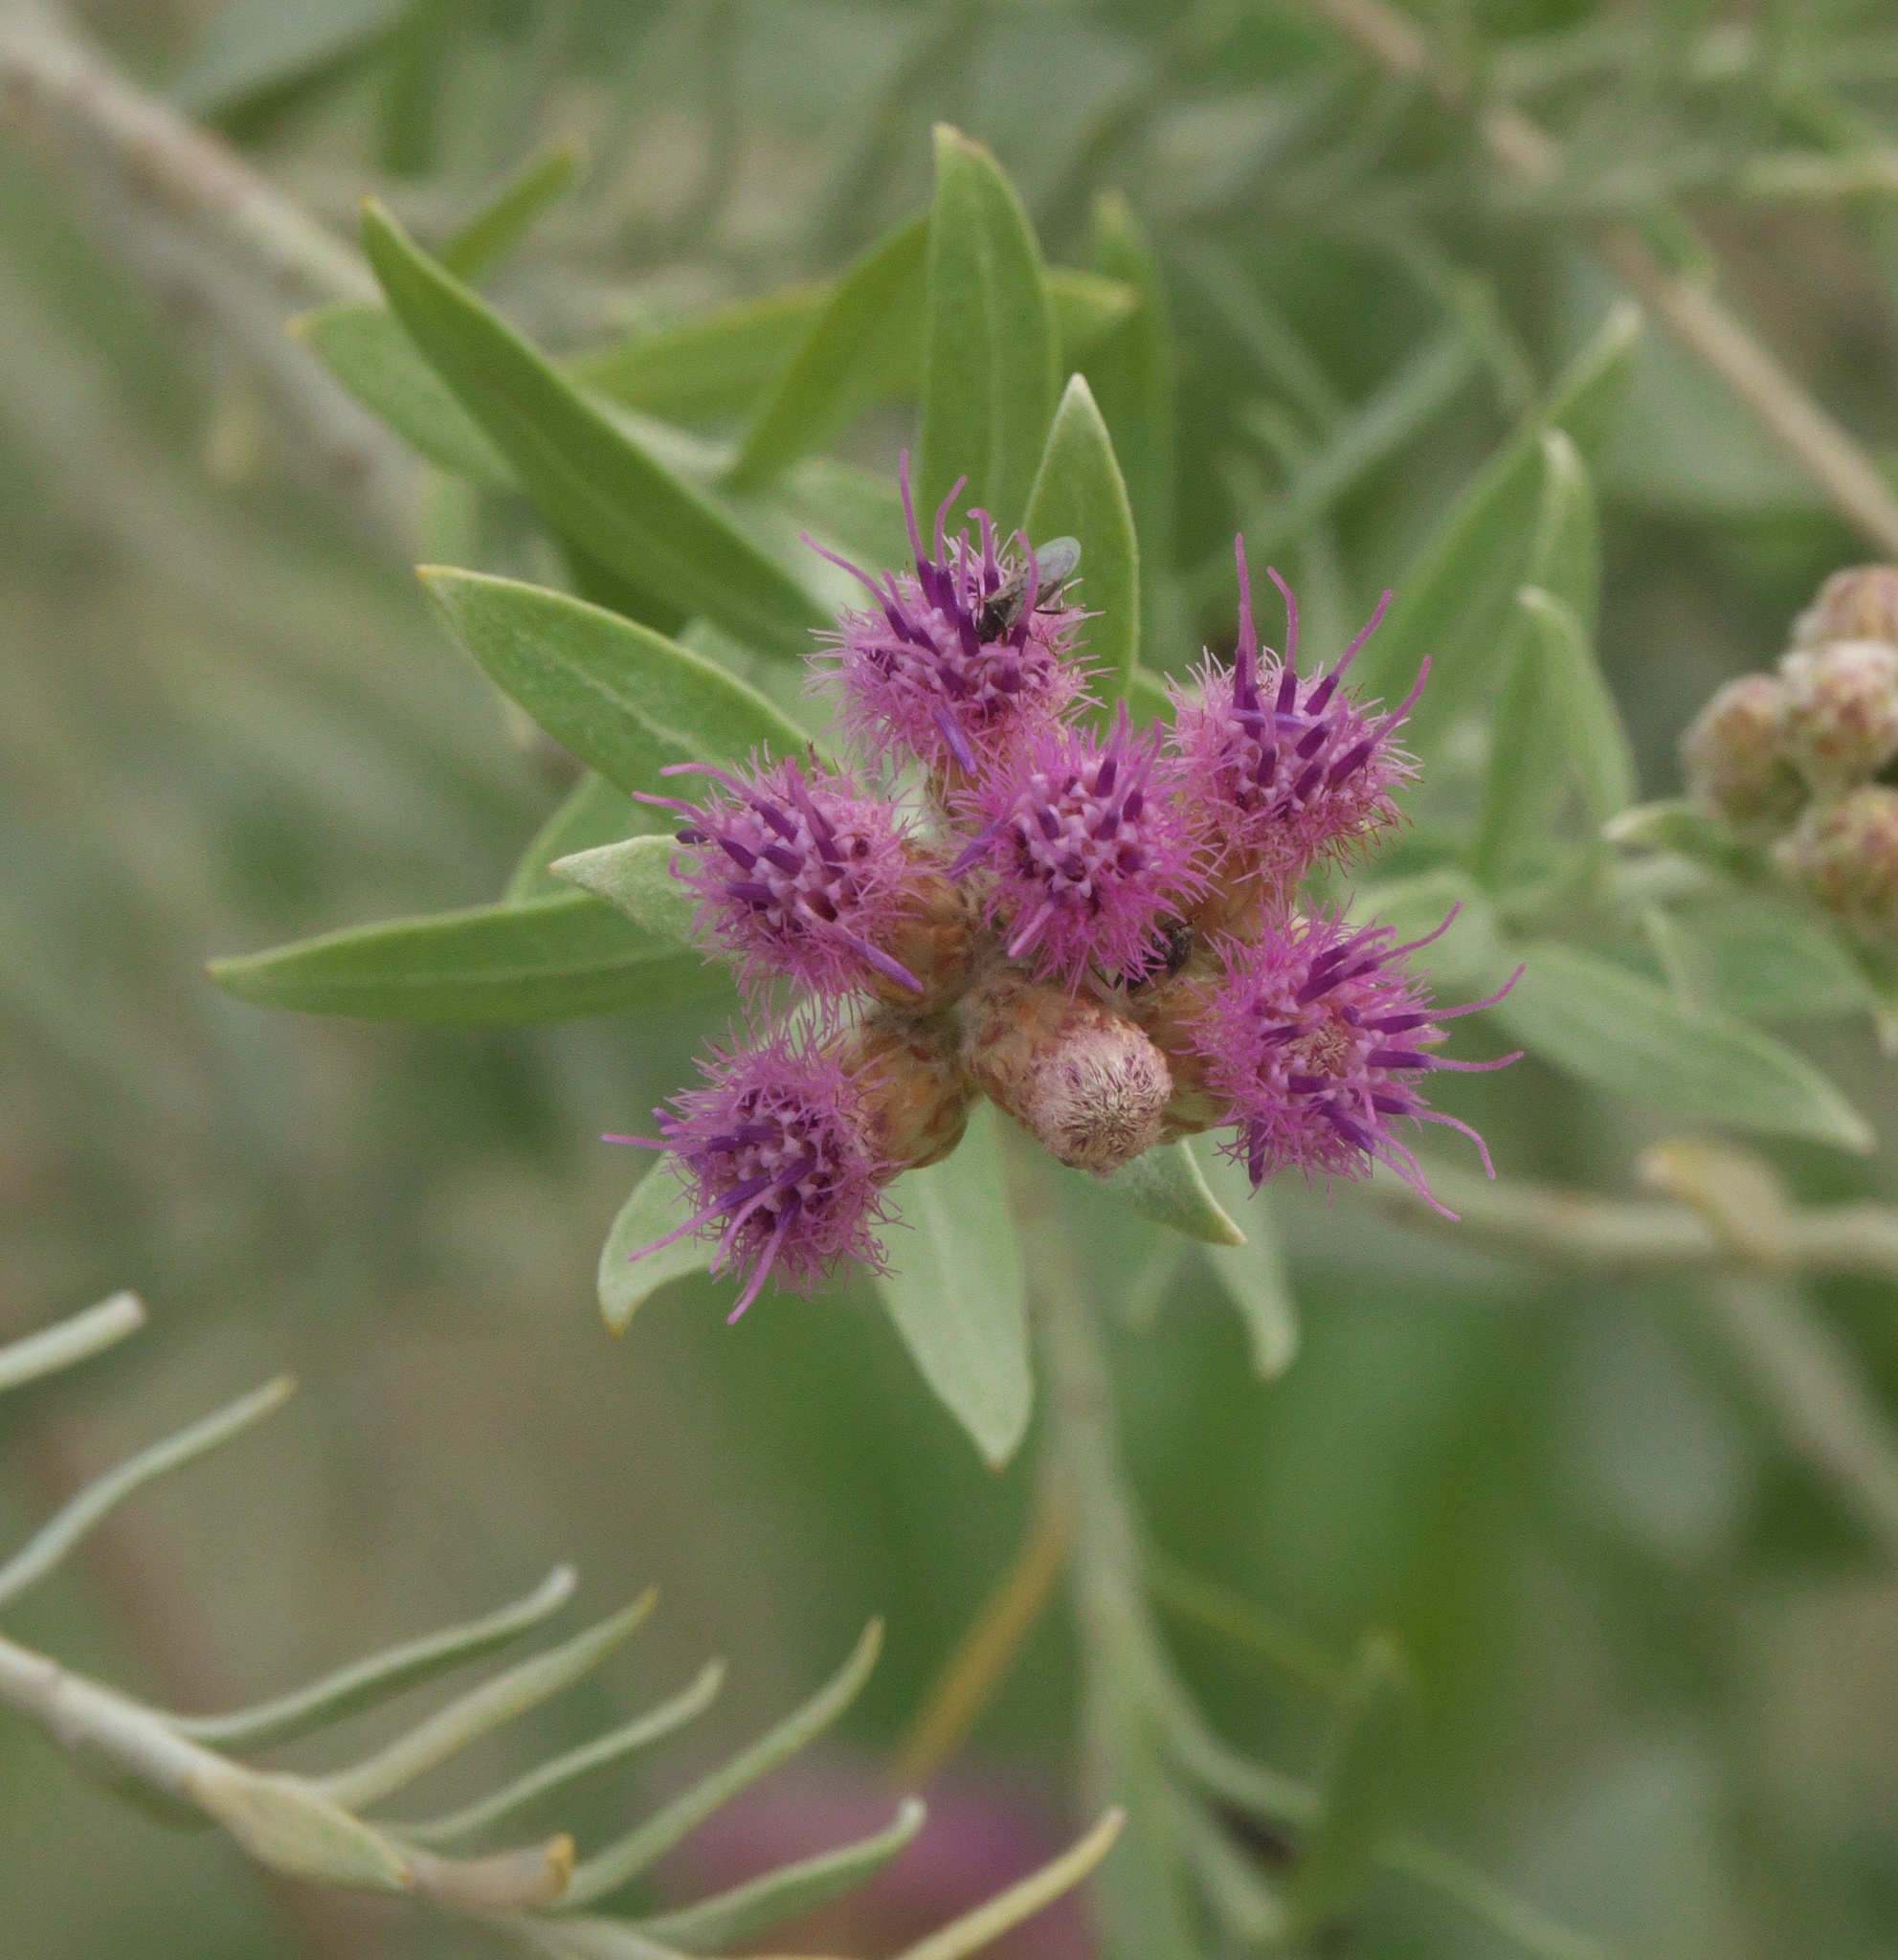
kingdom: Plantae
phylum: Tracheophyta
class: Magnoliopsida
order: Asterales
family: Asteraceae
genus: Pluchea
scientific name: Pluchea sericea
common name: Arrow-weed
